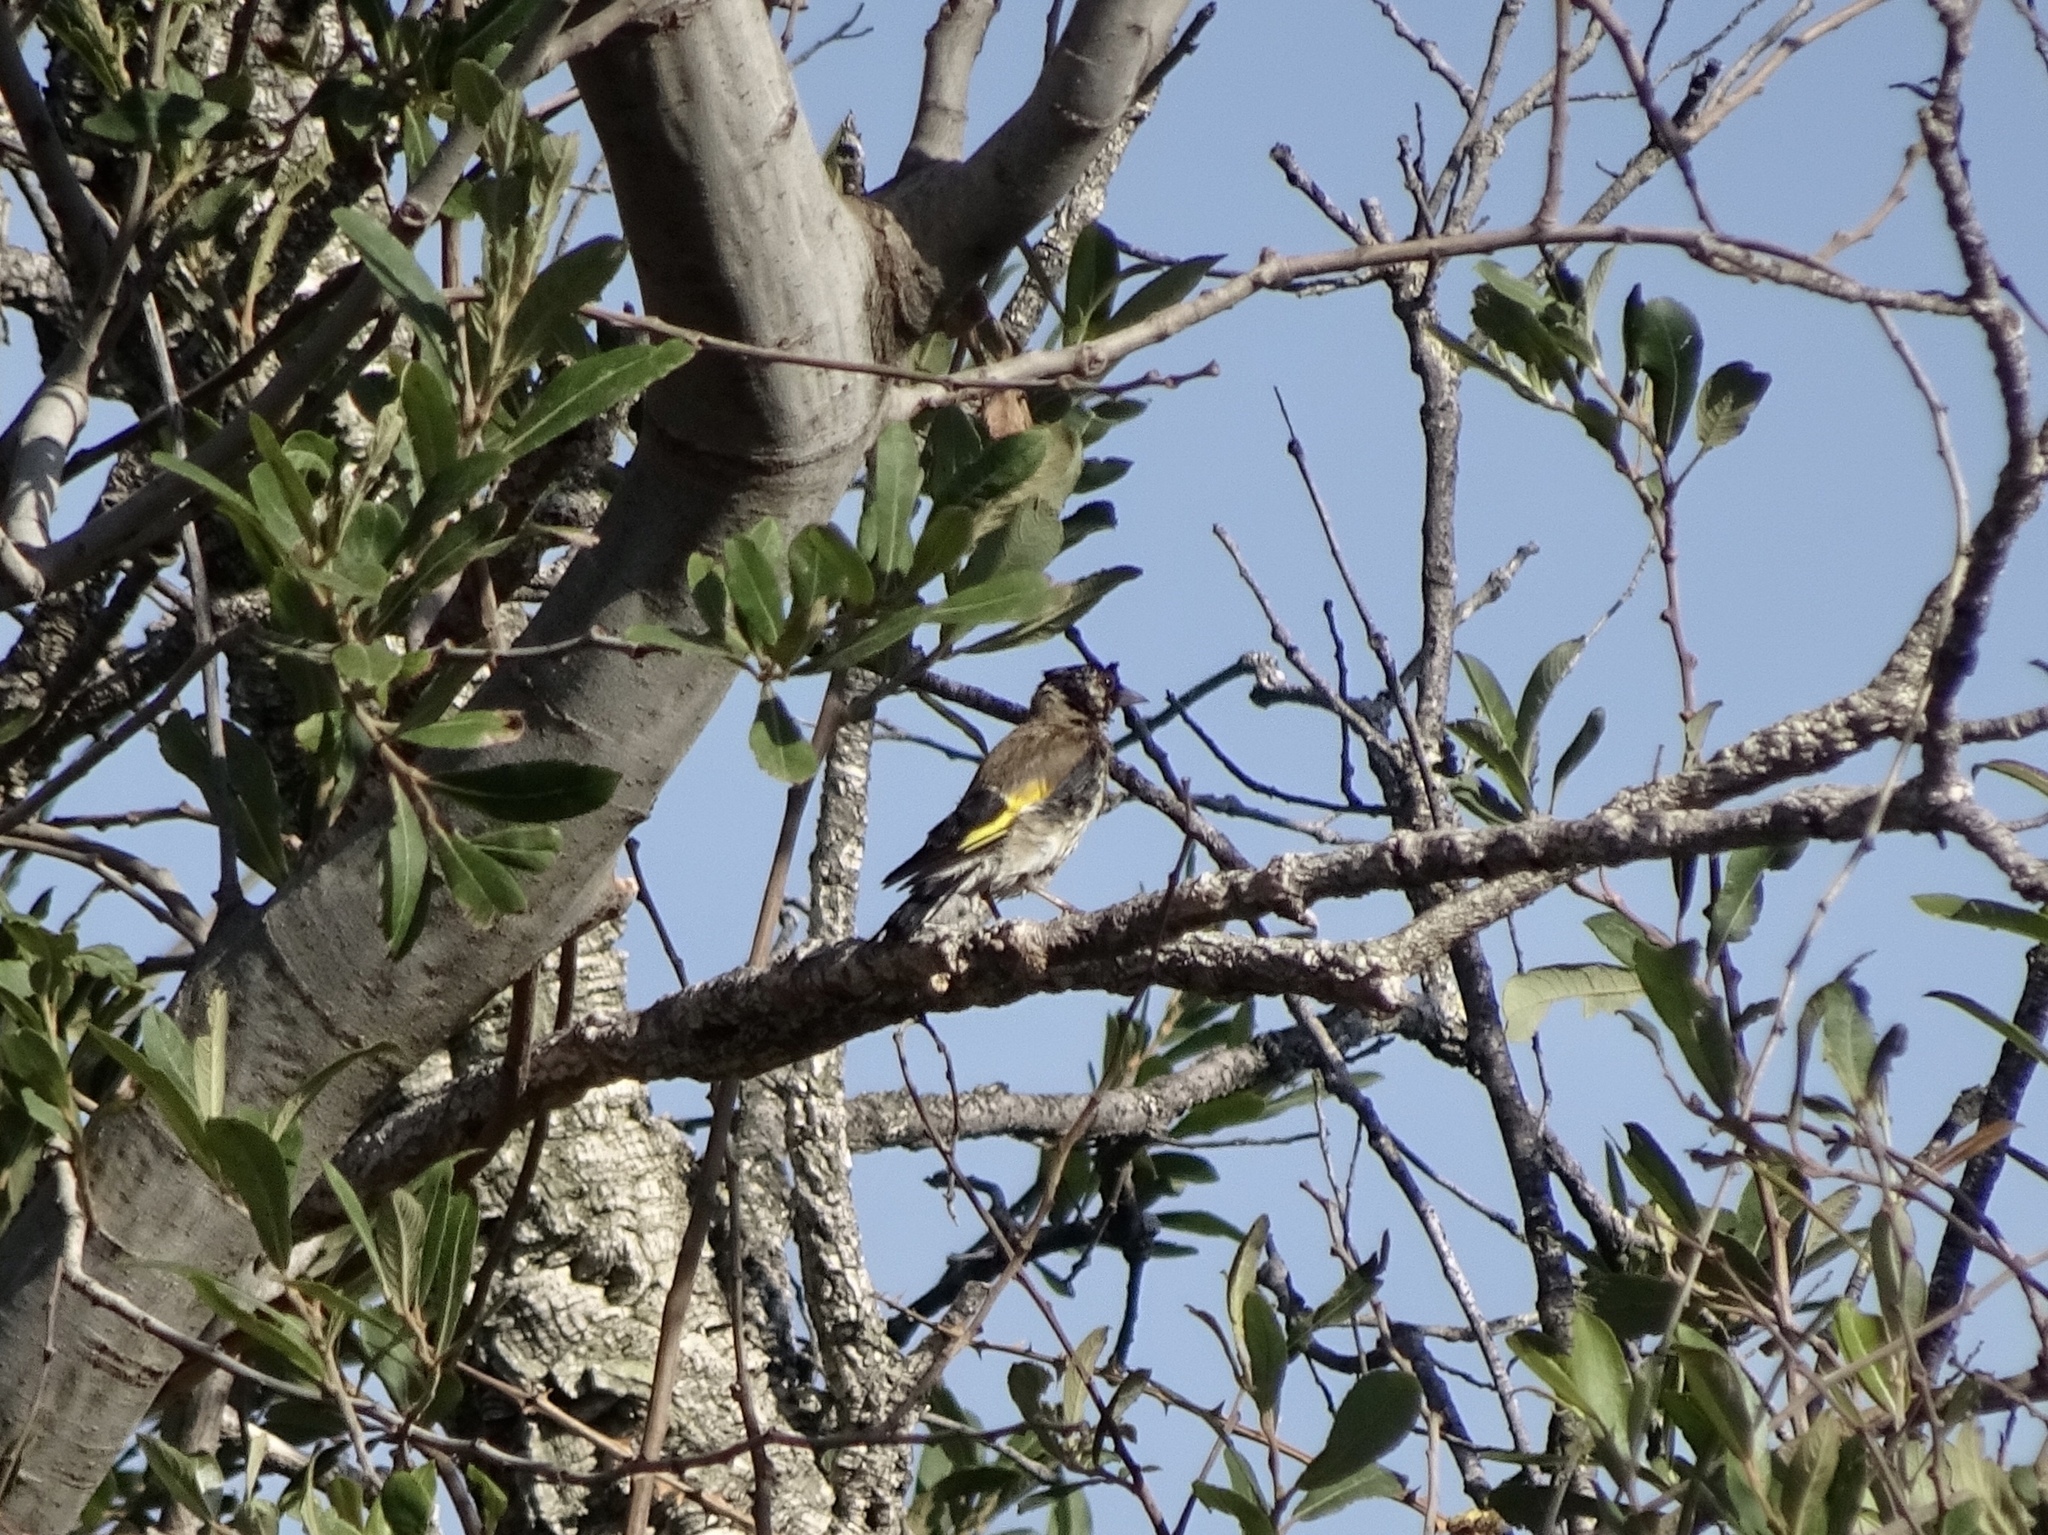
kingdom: Animalia
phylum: Chordata
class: Aves
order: Passeriformes
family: Fringillidae
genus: Carduelis
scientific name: Carduelis carduelis
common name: European goldfinch
